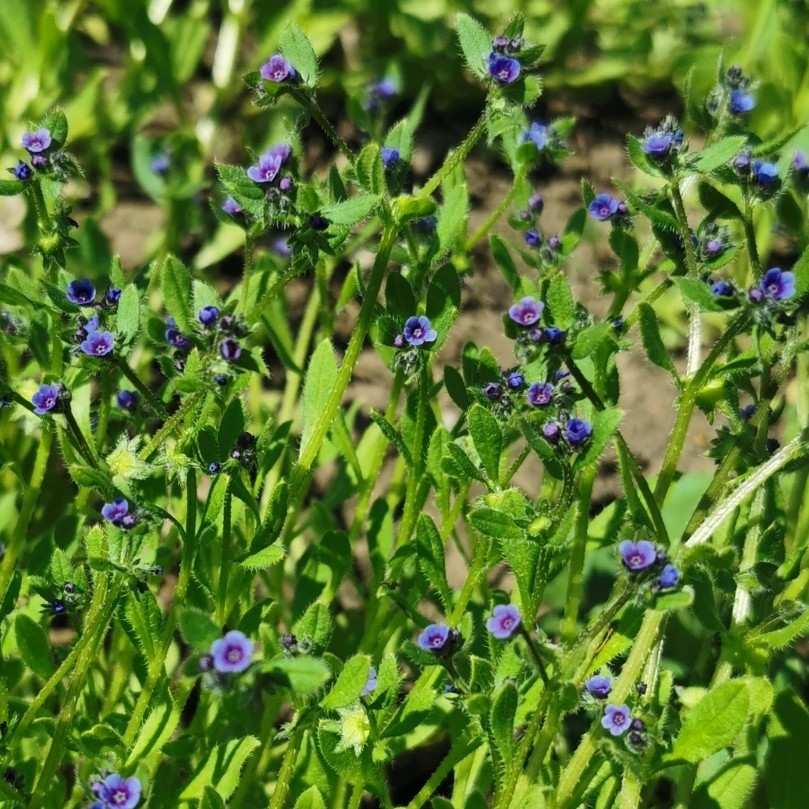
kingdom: Plantae
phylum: Tracheophyta
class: Magnoliopsida
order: Boraginales
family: Boraginaceae
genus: Asperugo
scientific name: Asperugo procumbens
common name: Madwort
